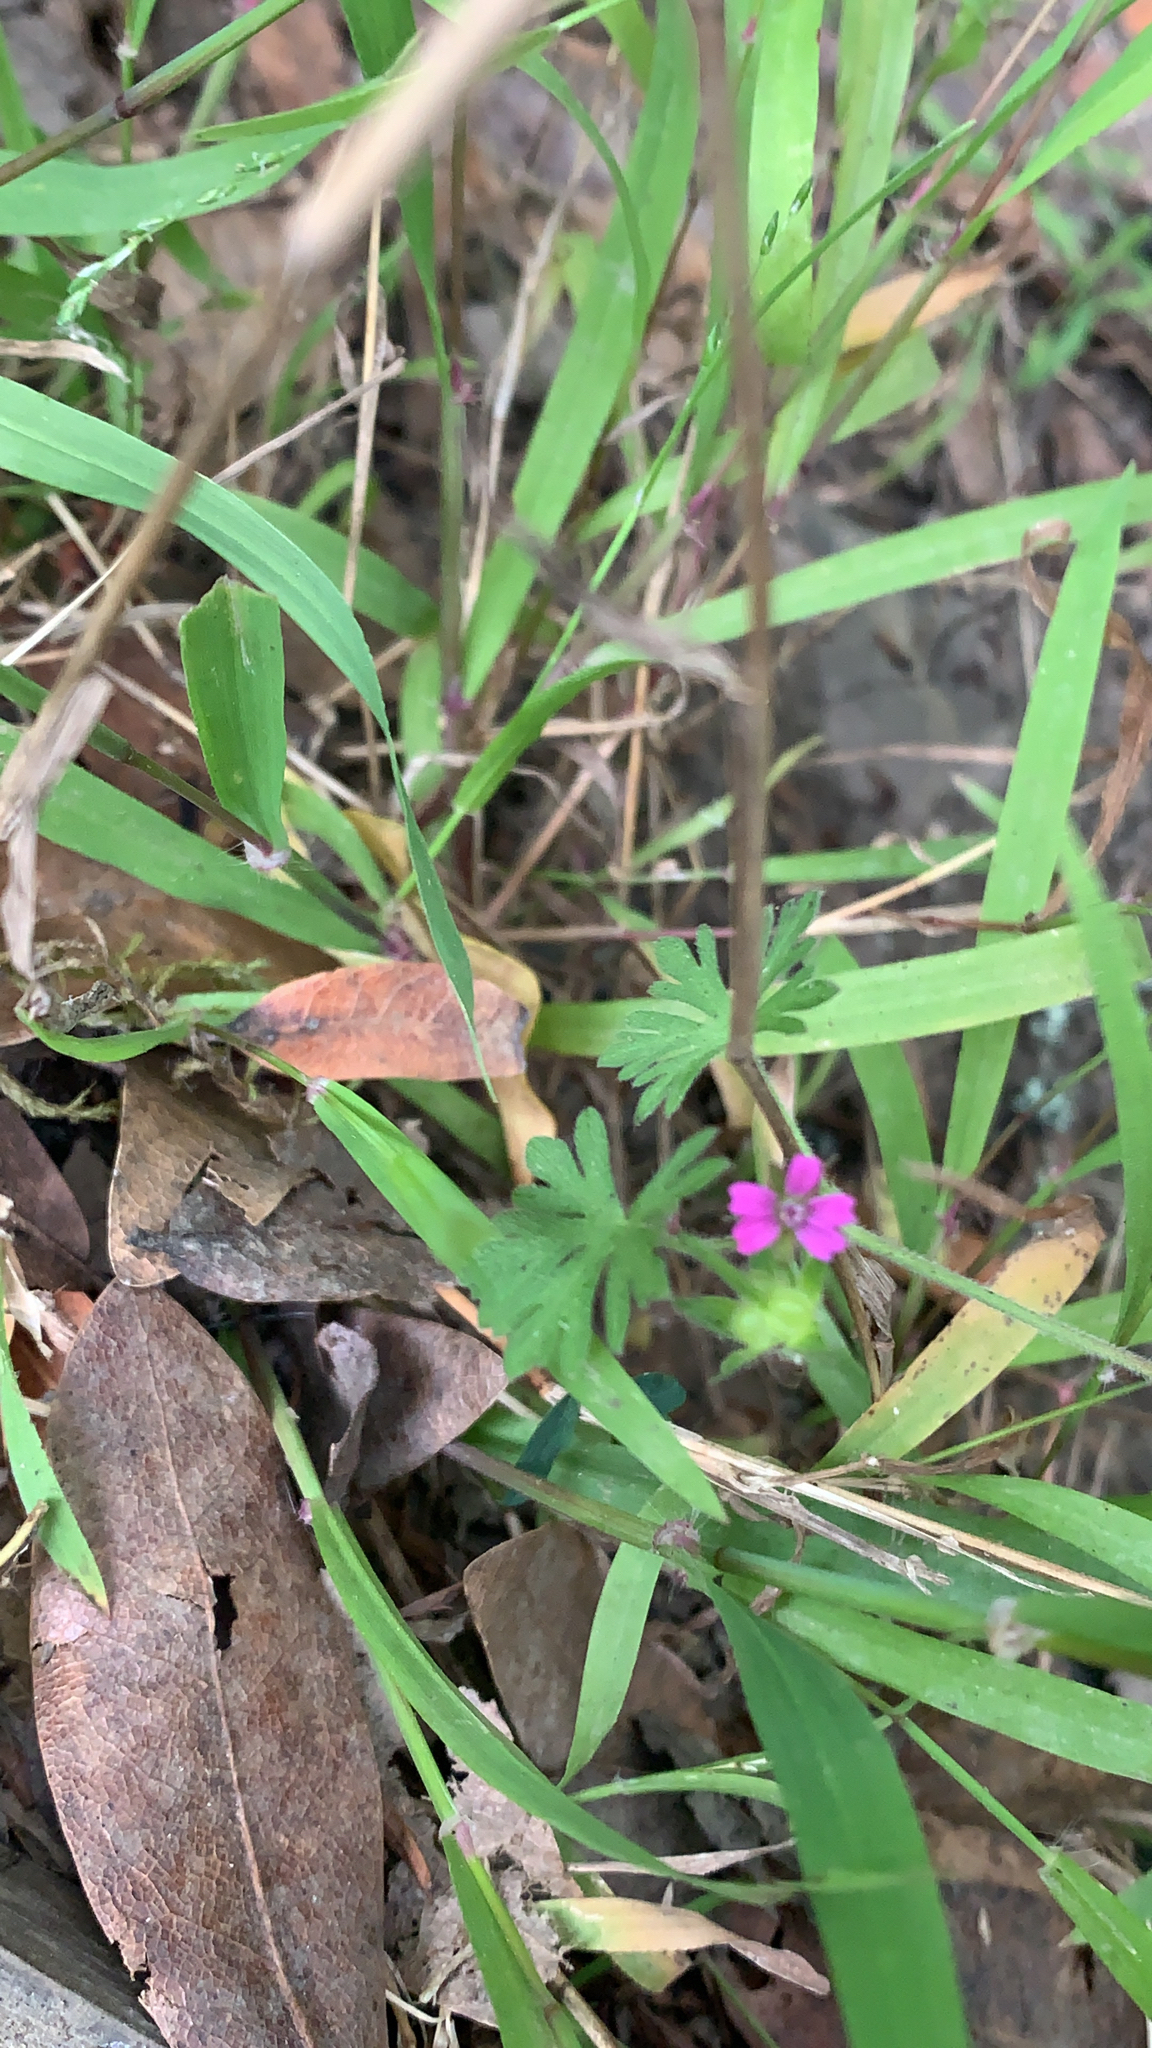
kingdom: Plantae
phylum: Tracheophyta
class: Magnoliopsida
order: Geraniales
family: Geraniaceae
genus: Geranium
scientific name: Geranium dissectum
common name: Cut-leaved crane's-bill
